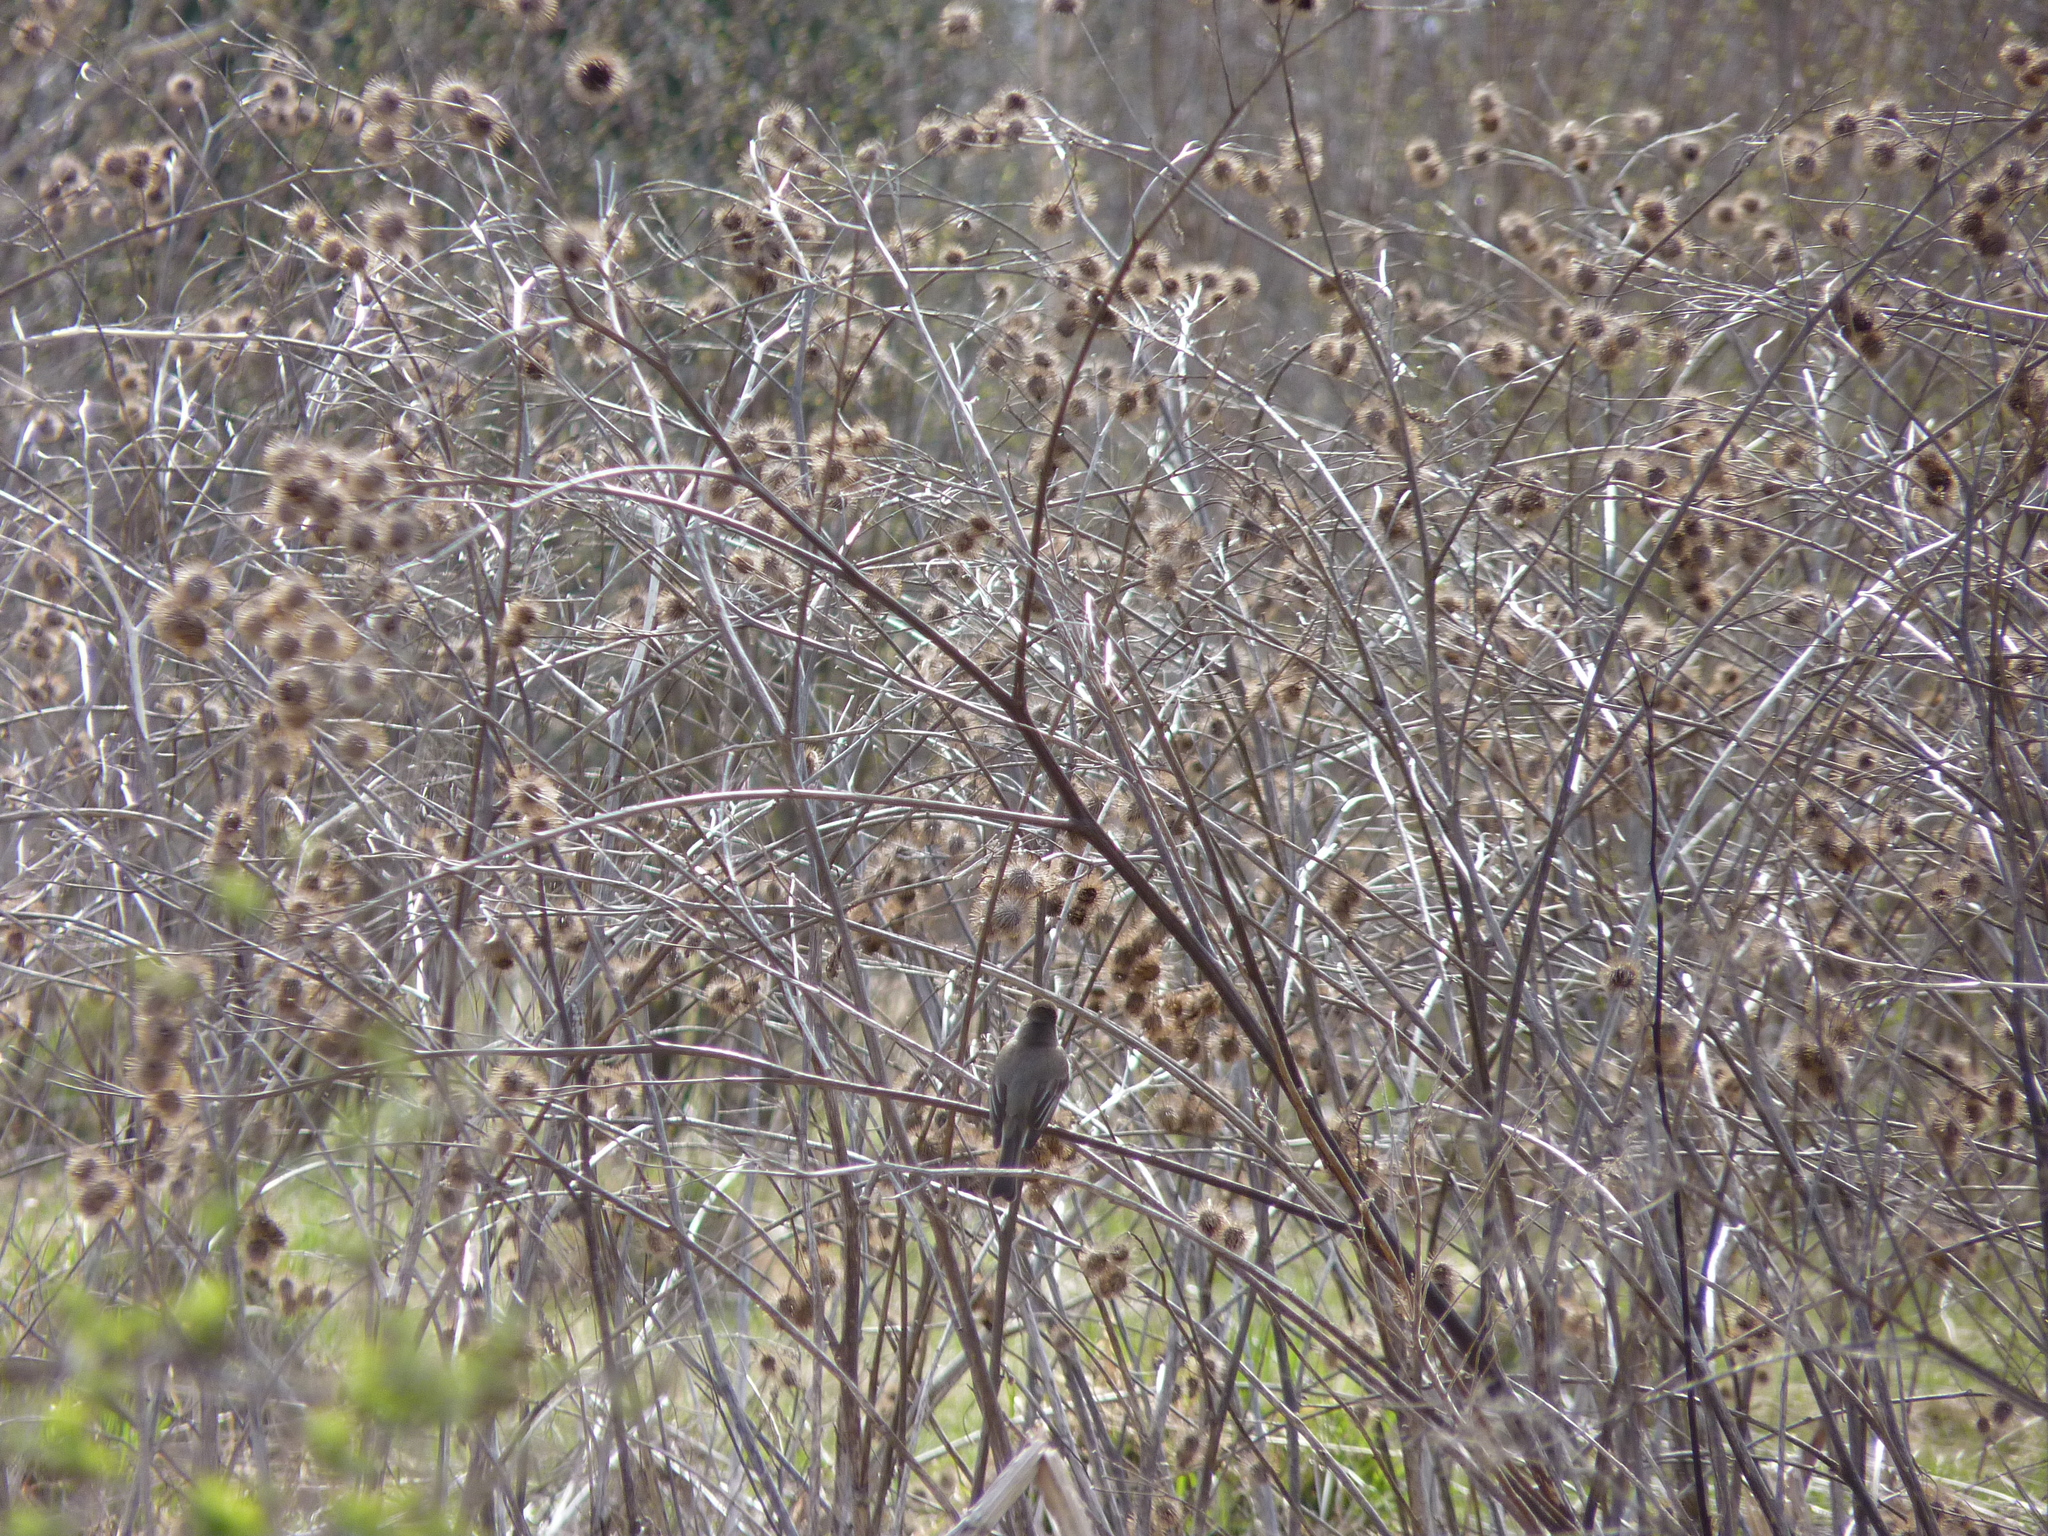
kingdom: Animalia
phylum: Chordata
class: Aves
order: Passeriformes
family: Tyrannidae
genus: Sayornis
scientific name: Sayornis phoebe
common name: Eastern phoebe
